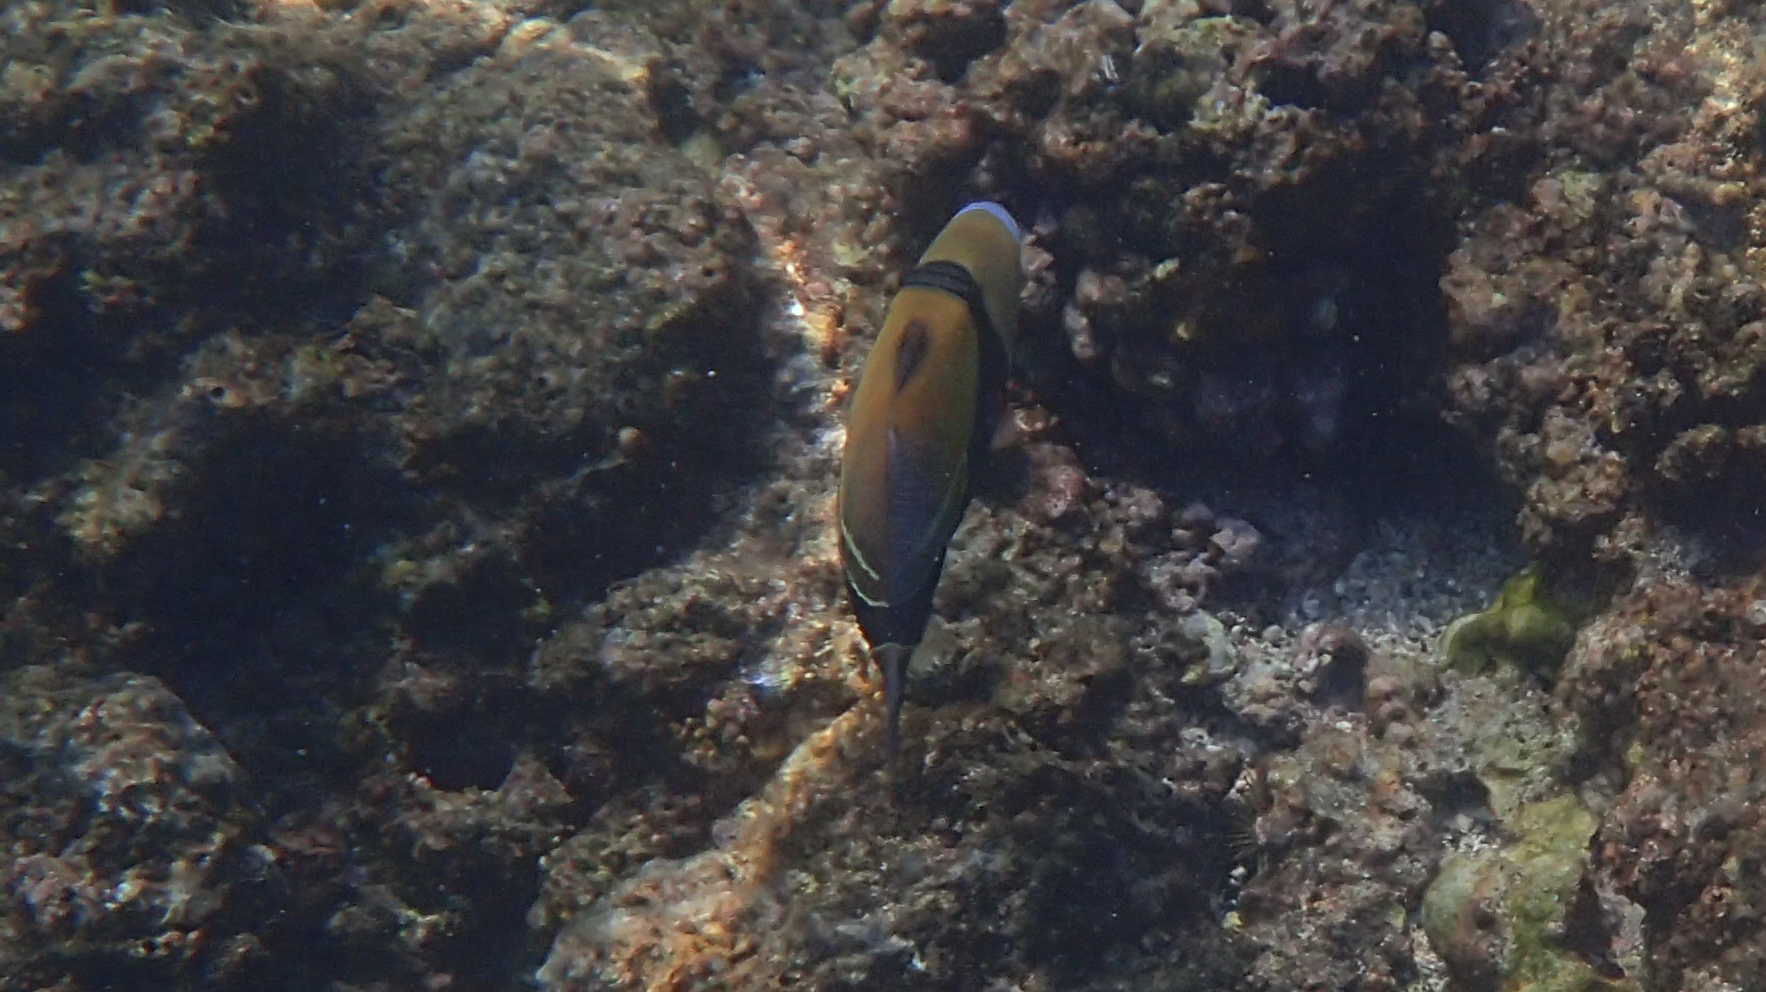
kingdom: Animalia
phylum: Chordata
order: Tetraodontiformes
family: Balistidae
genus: Rhinecanthus
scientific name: Rhinecanthus rectangulus
